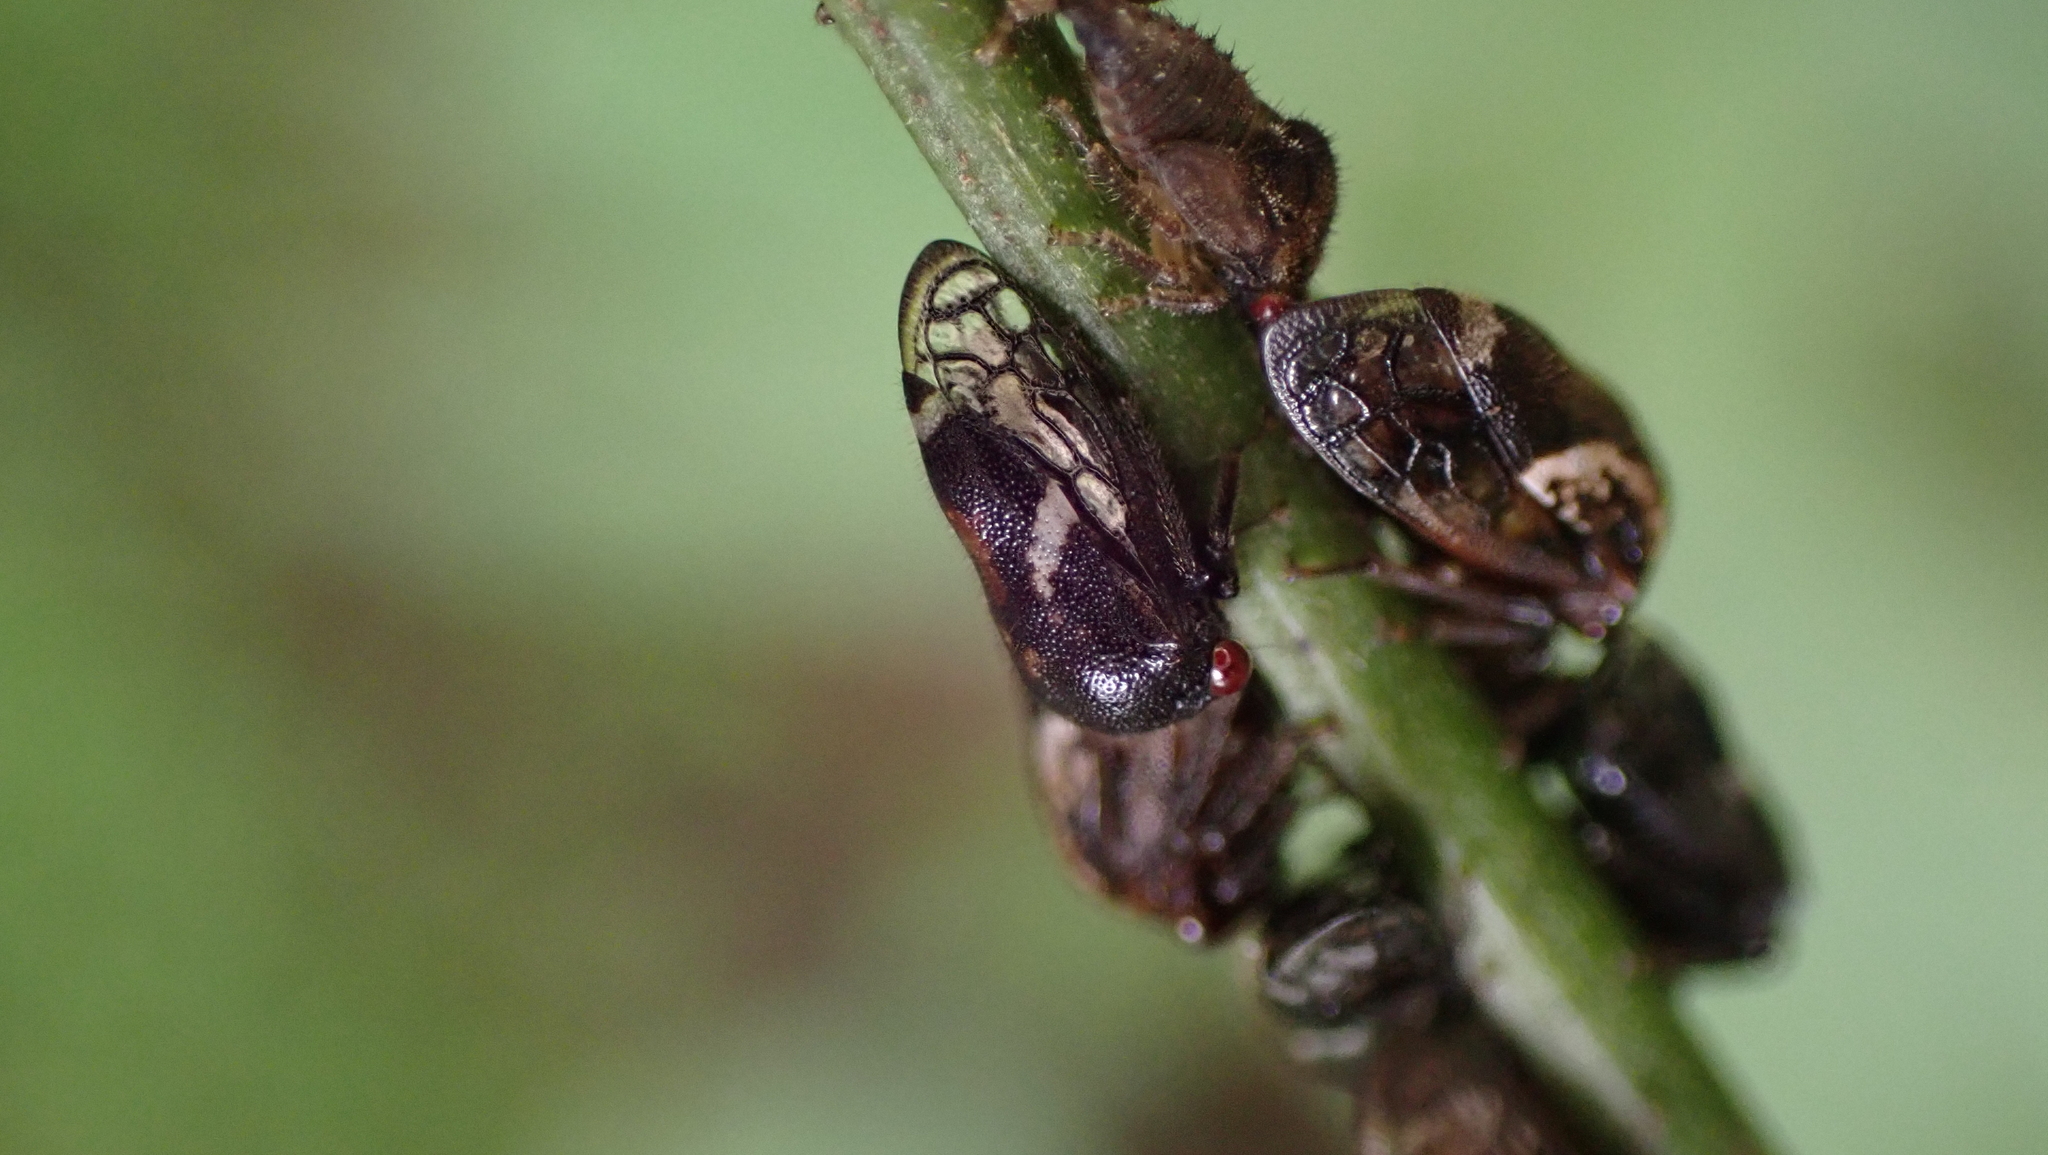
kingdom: Animalia
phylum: Arthropoda
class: Insecta
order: Hemiptera
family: Membracidae
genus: Vanduzea
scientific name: Vanduzea arquata
